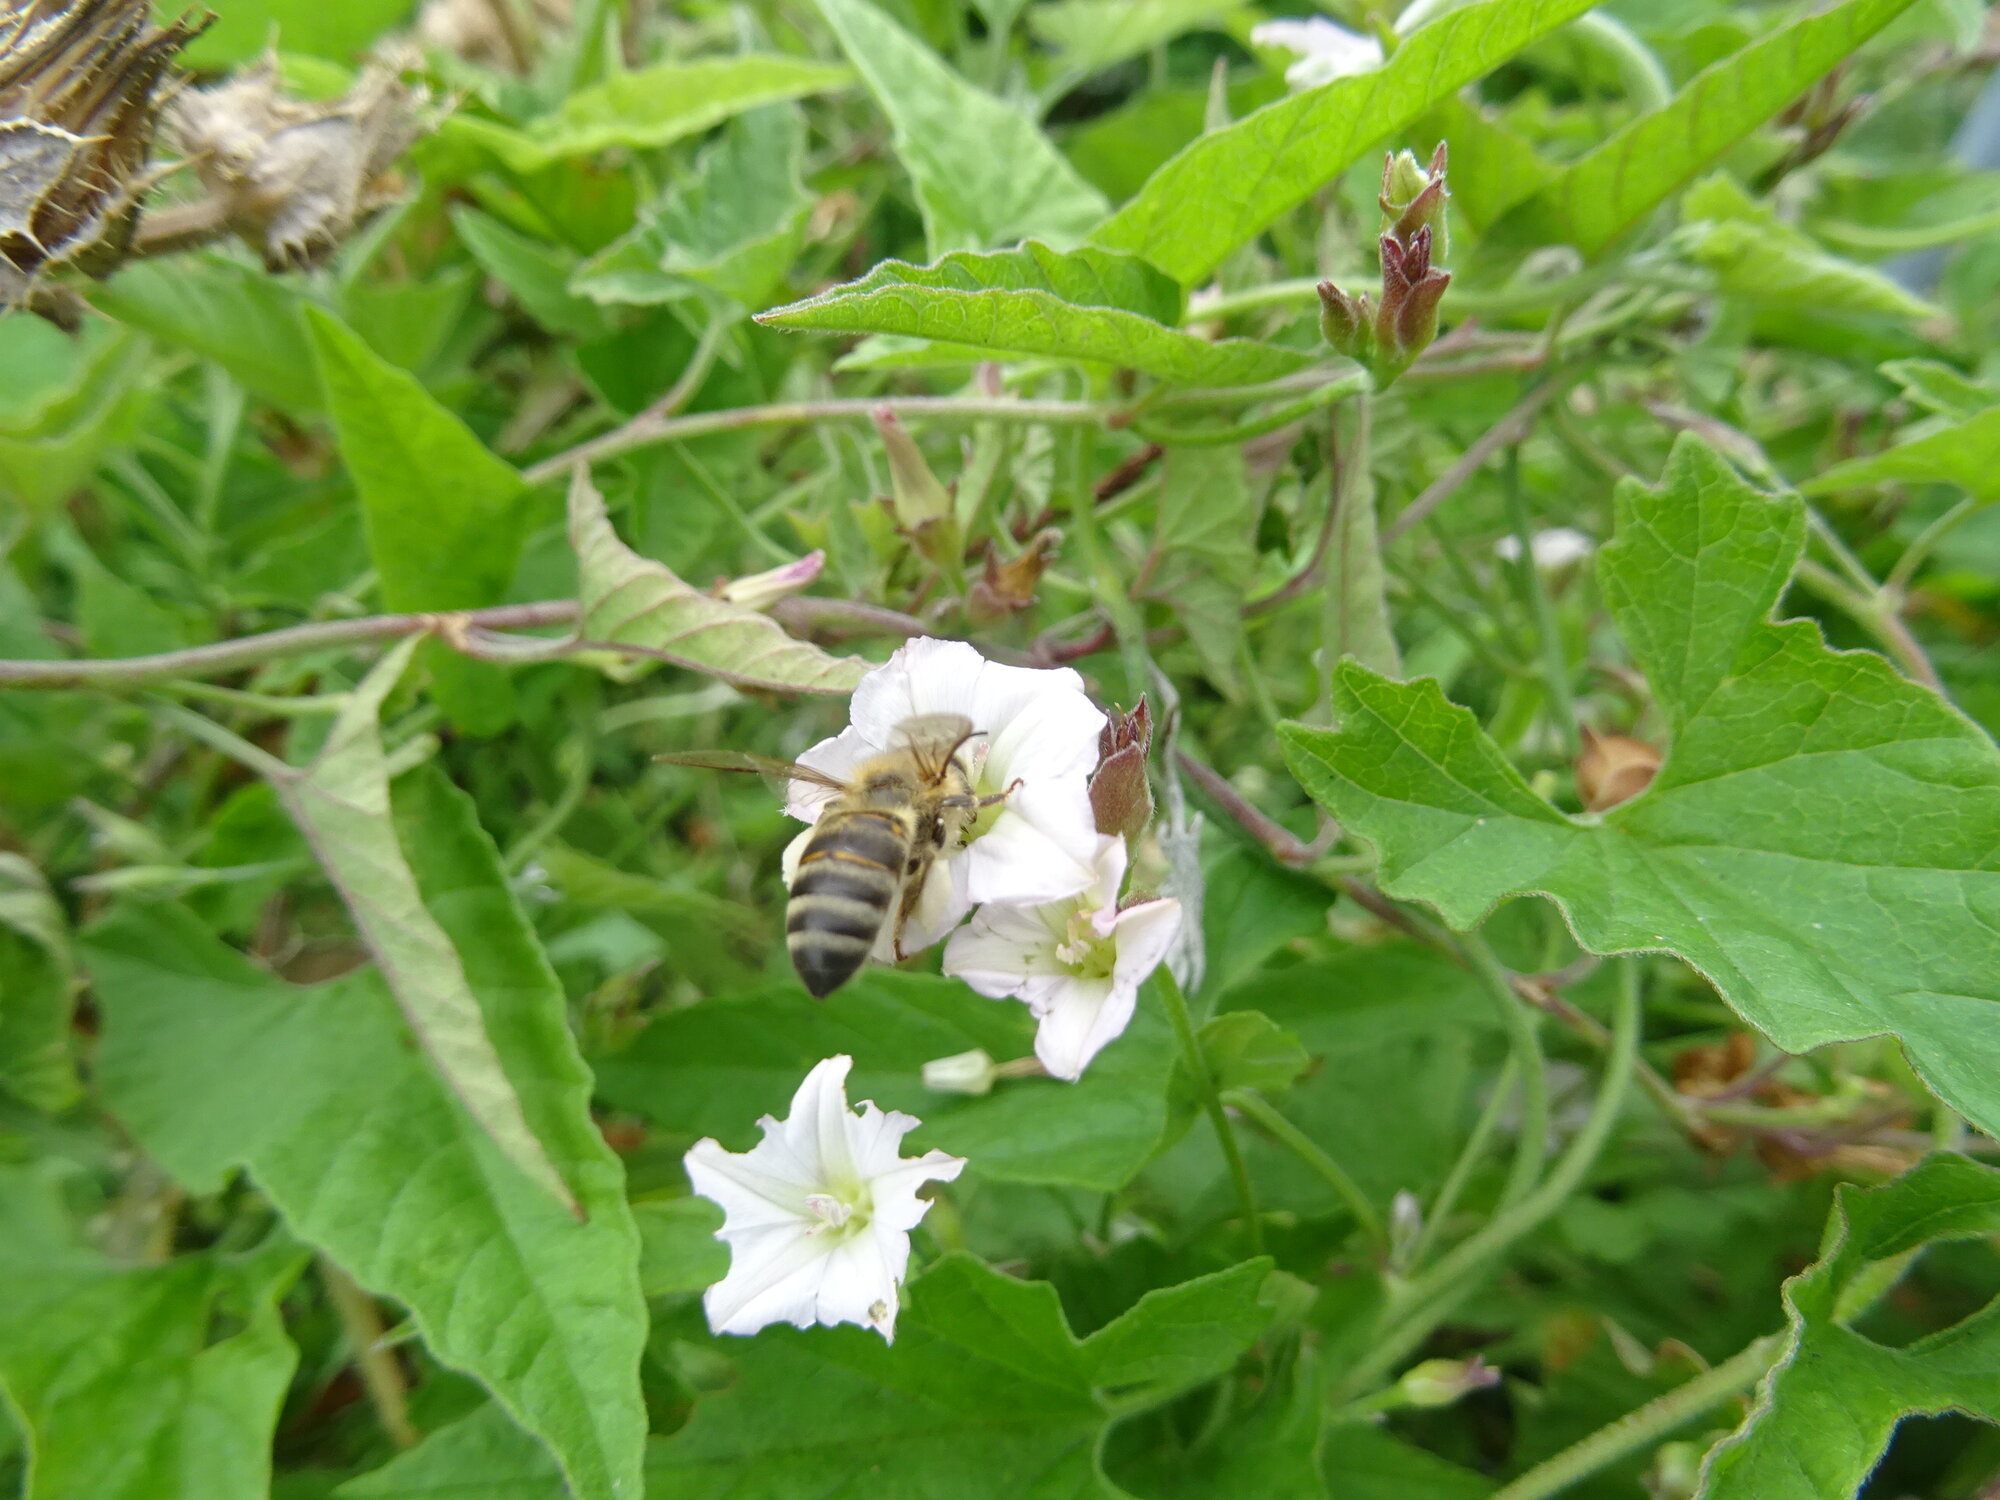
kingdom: Animalia
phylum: Arthropoda
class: Insecta
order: Hymenoptera
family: Apidae
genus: Apis
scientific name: Apis mellifera
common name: Honey bee
